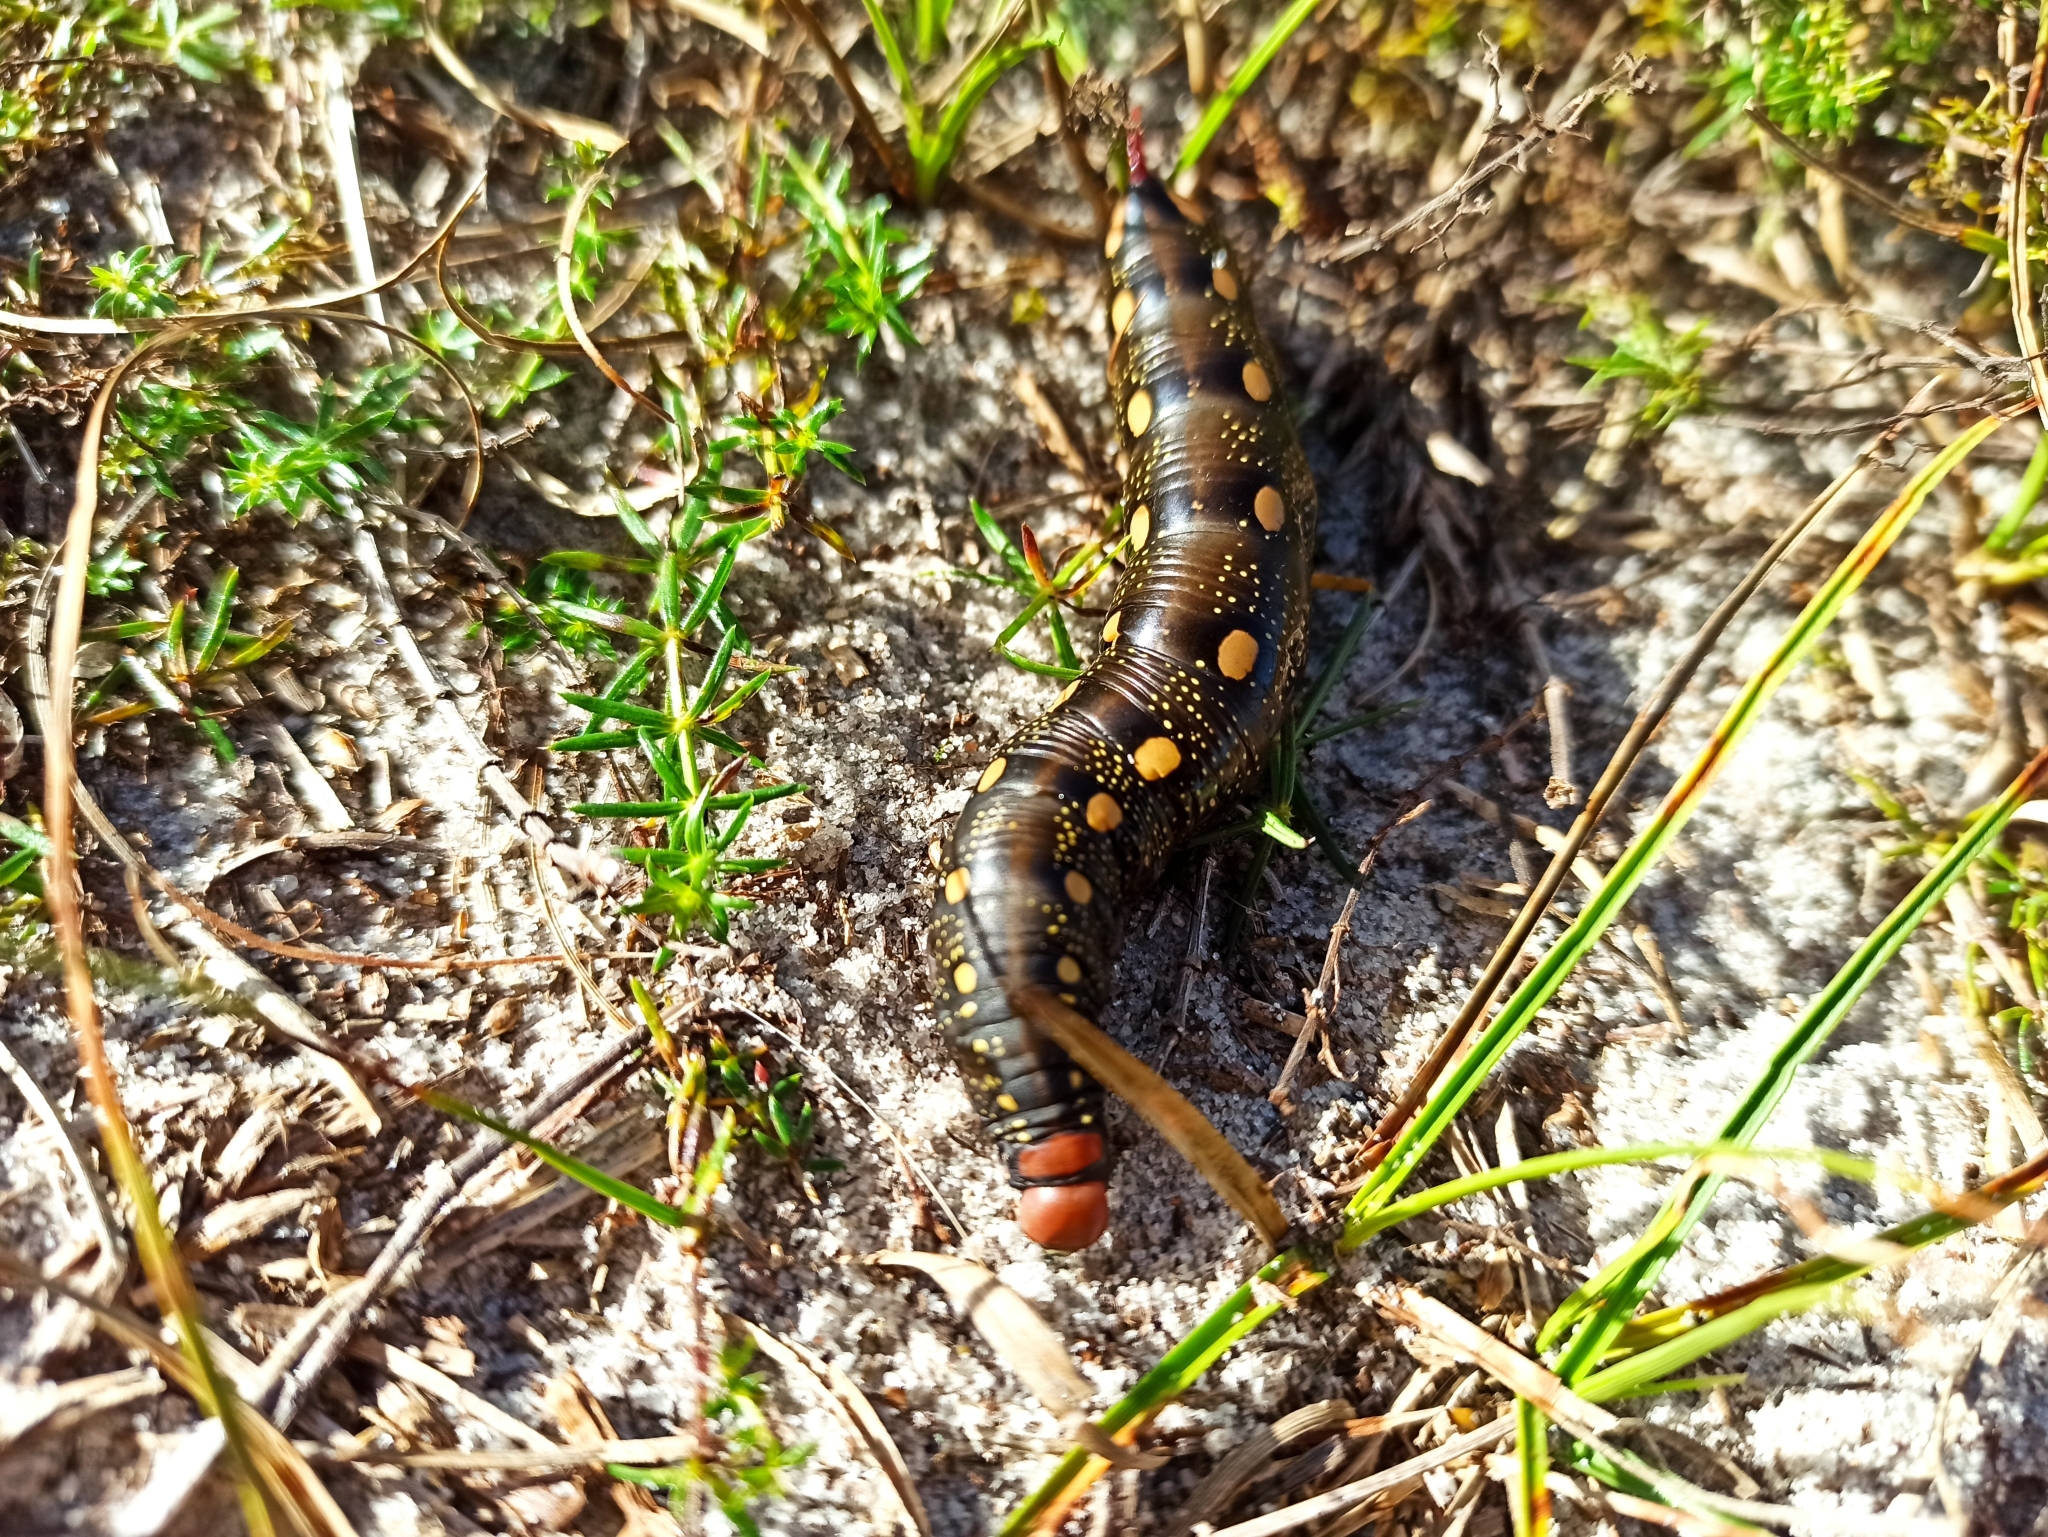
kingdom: Animalia
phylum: Arthropoda
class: Insecta
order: Lepidoptera
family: Sphingidae
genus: Hyles
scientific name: Hyles gallii
